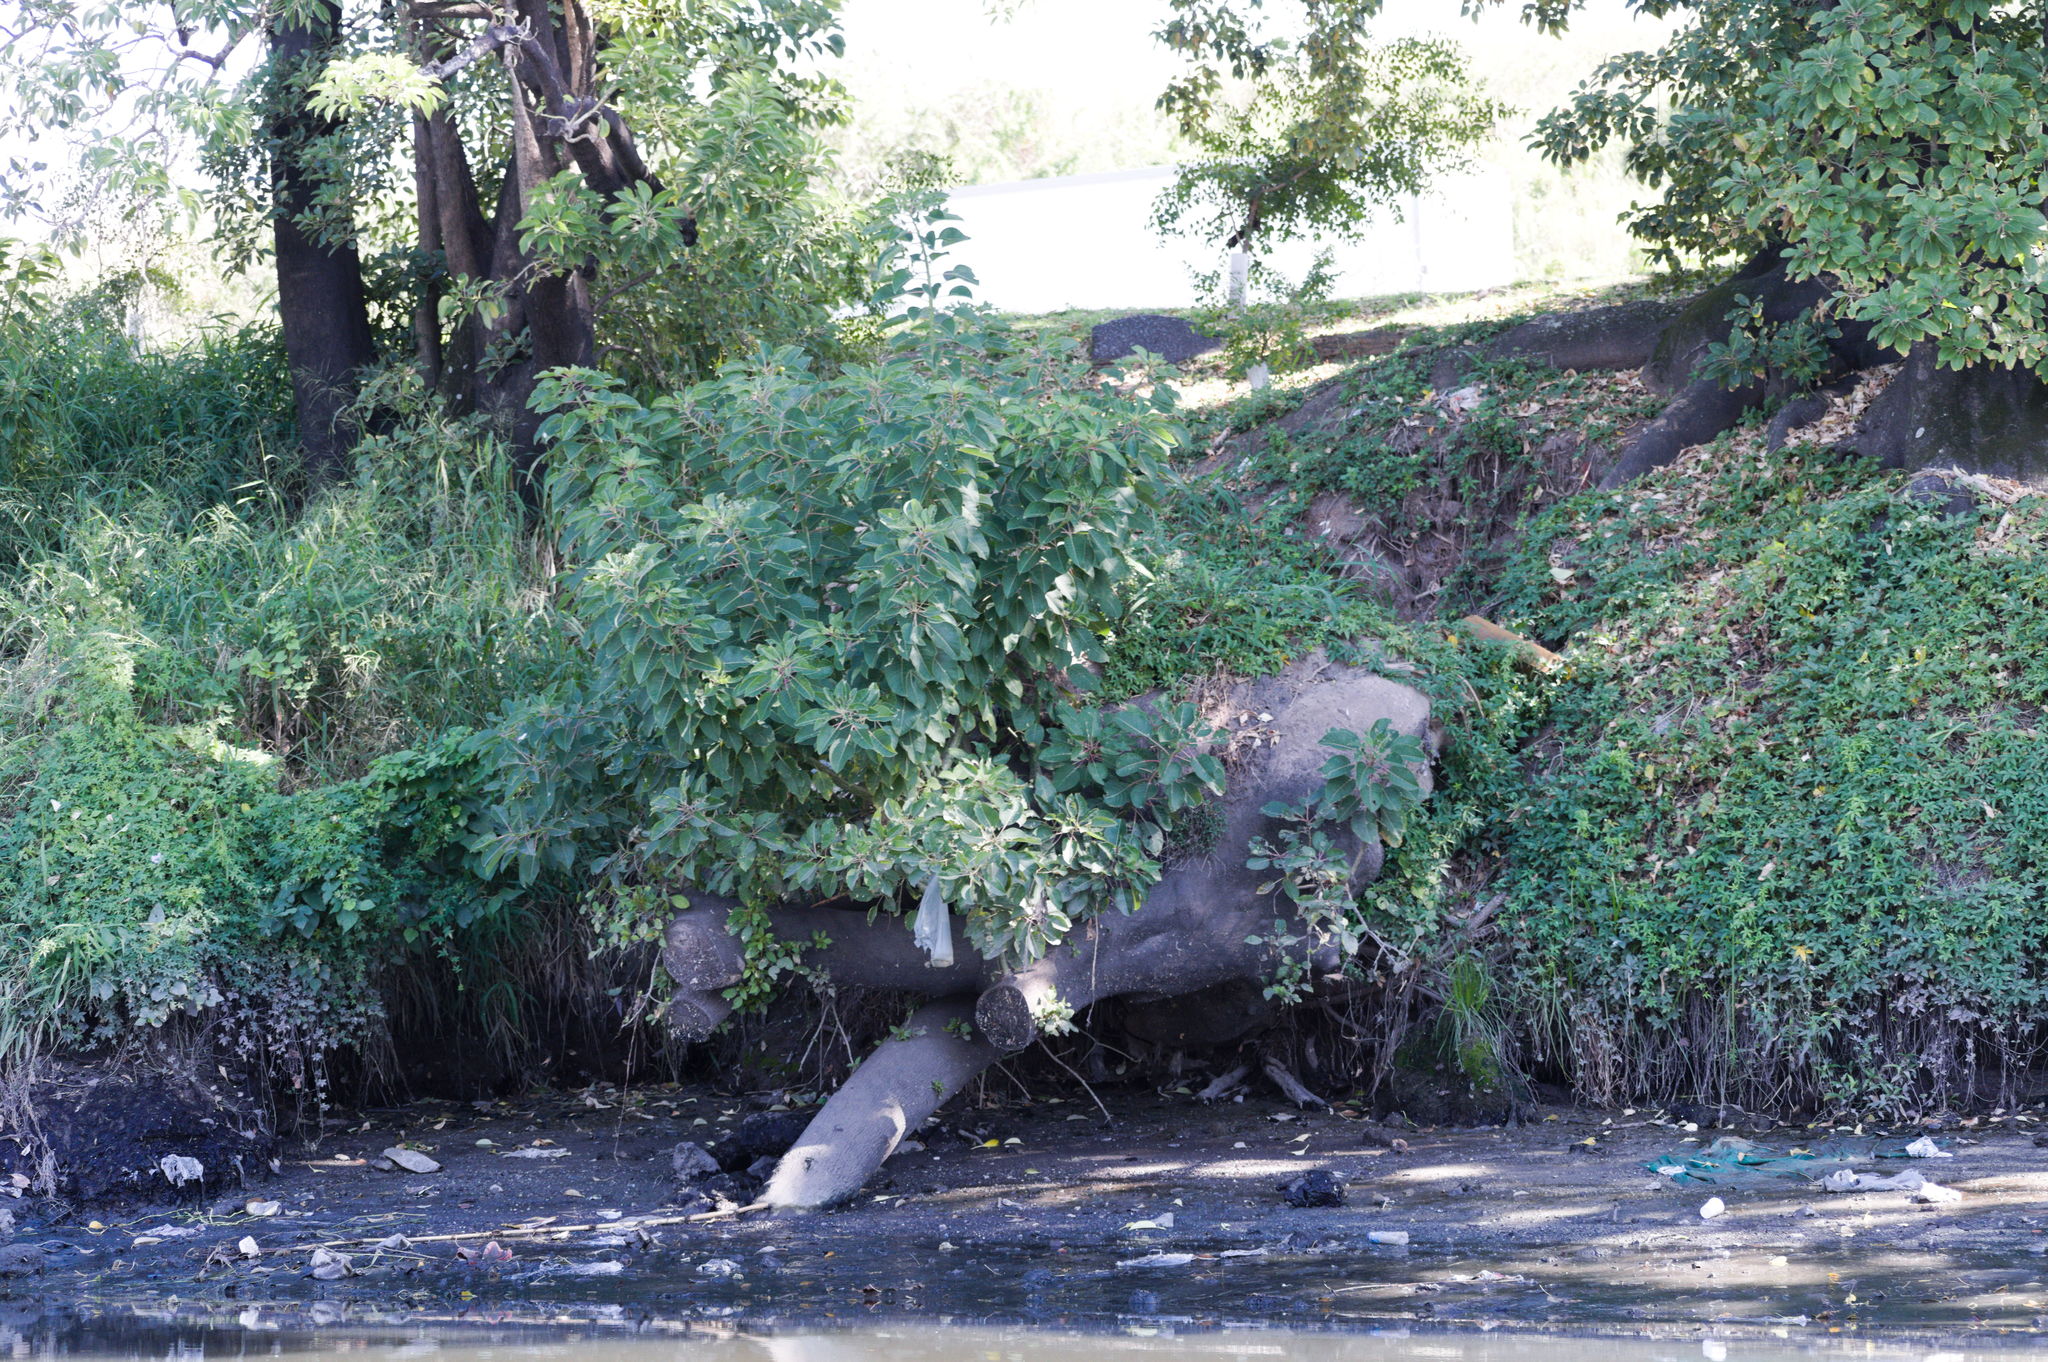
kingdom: Plantae
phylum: Tracheophyta
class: Magnoliopsida
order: Caryophyllales
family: Phytolaccaceae
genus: Phytolacca
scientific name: Phytolacca dioica
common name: Pokeweed
